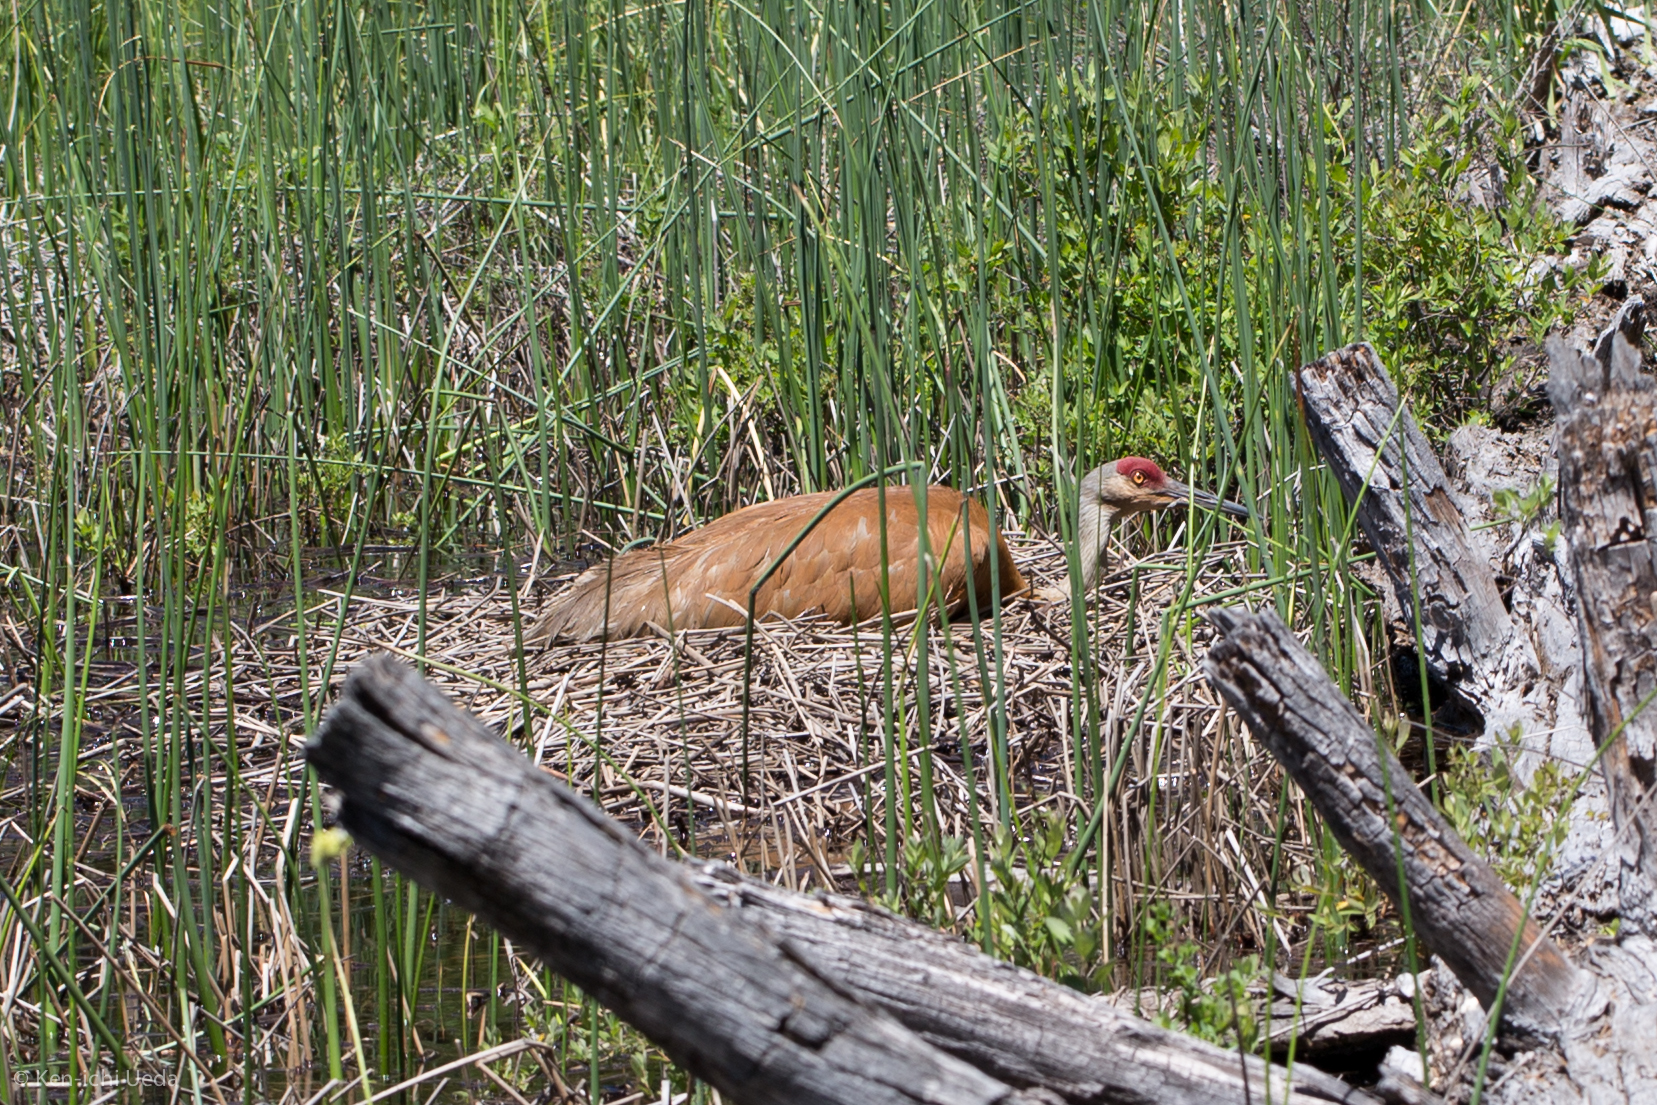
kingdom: Animalia
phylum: Chordata
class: Aves
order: Gruiformes
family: Gruidae
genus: Grus
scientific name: Grus canadensis
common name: Sandhill crane
